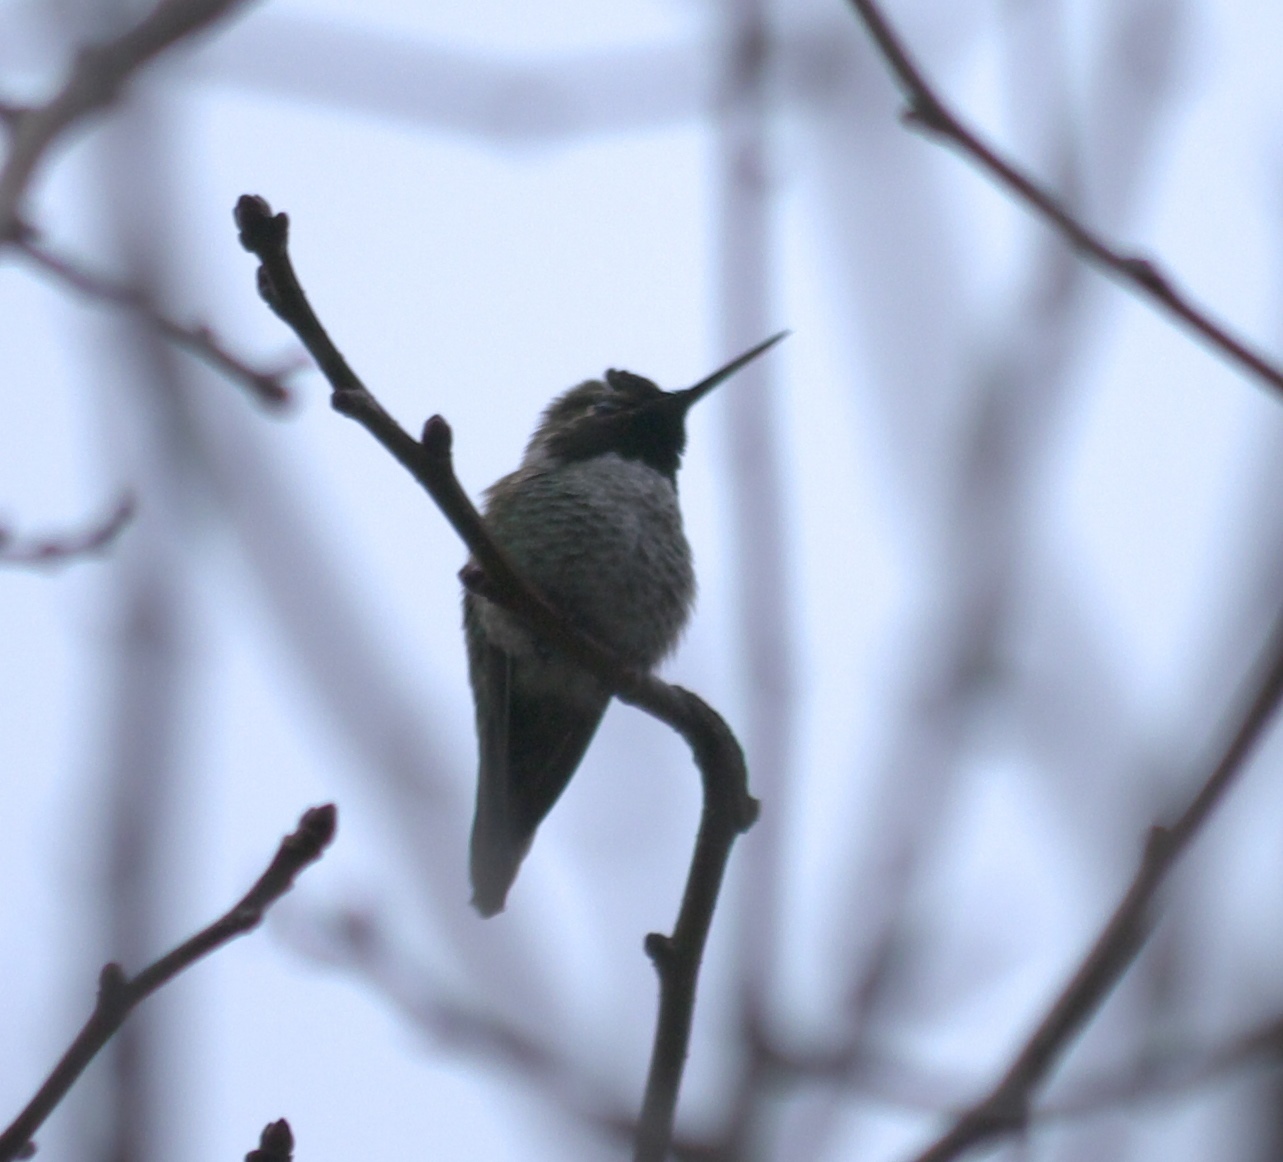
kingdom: Animalia
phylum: Chordata
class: Aves
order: Apodiformes
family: Trochilidae
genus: Calypte
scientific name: Calypte anna
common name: Anna's hummingbird
